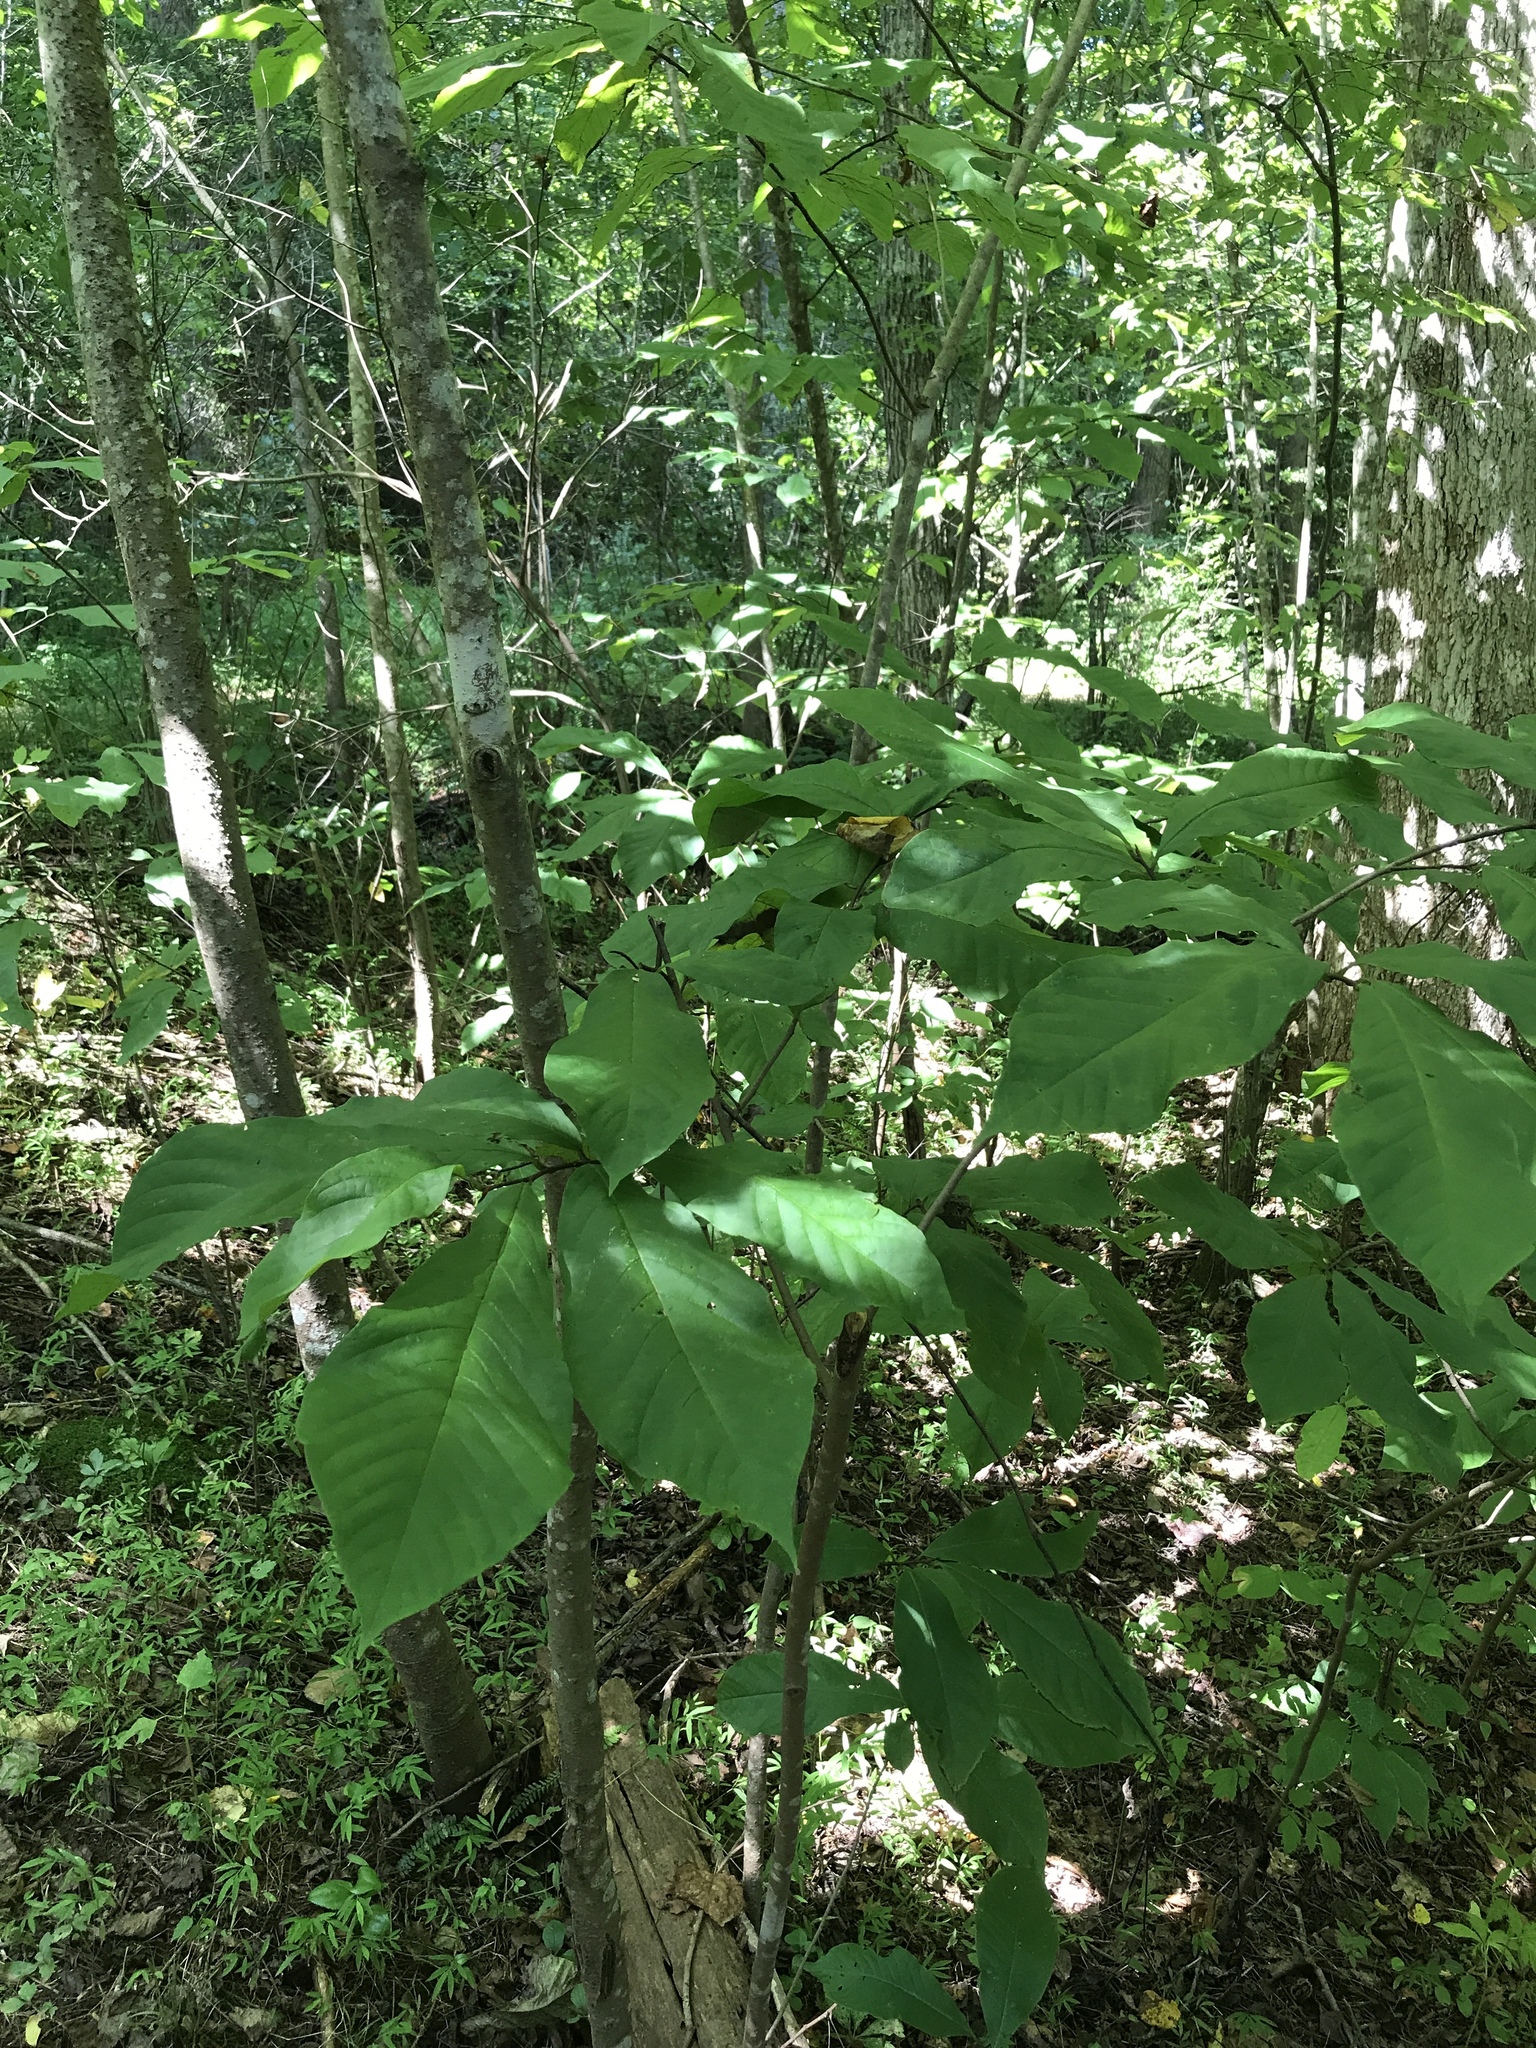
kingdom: Plantae
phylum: Tracheophyta
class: Magnoliopsida
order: Magnoliales
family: Annonaceae
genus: Asimina
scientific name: Asimina triloba
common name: Dog-banana
